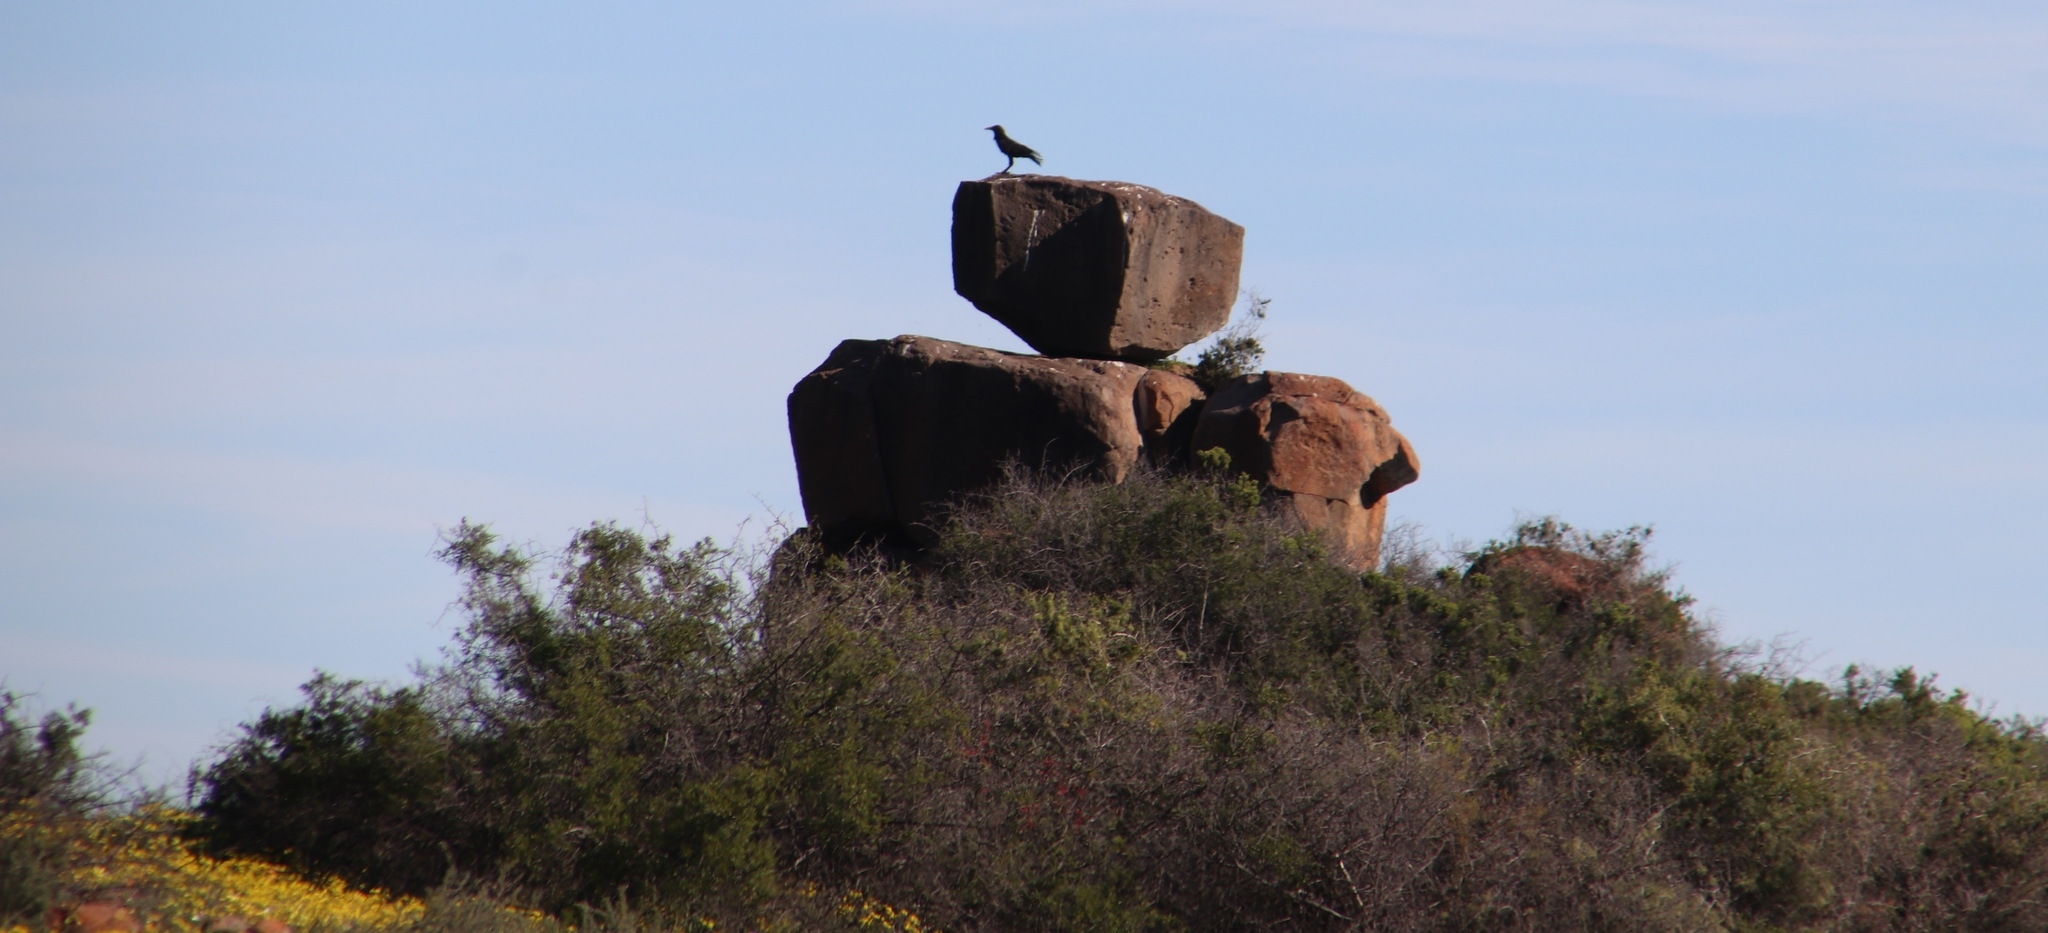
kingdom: Animalia
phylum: Chordata
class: Aves
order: Passeriformes
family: Corvidae
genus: Corvus
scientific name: Corvus capensis
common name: Cape crow
